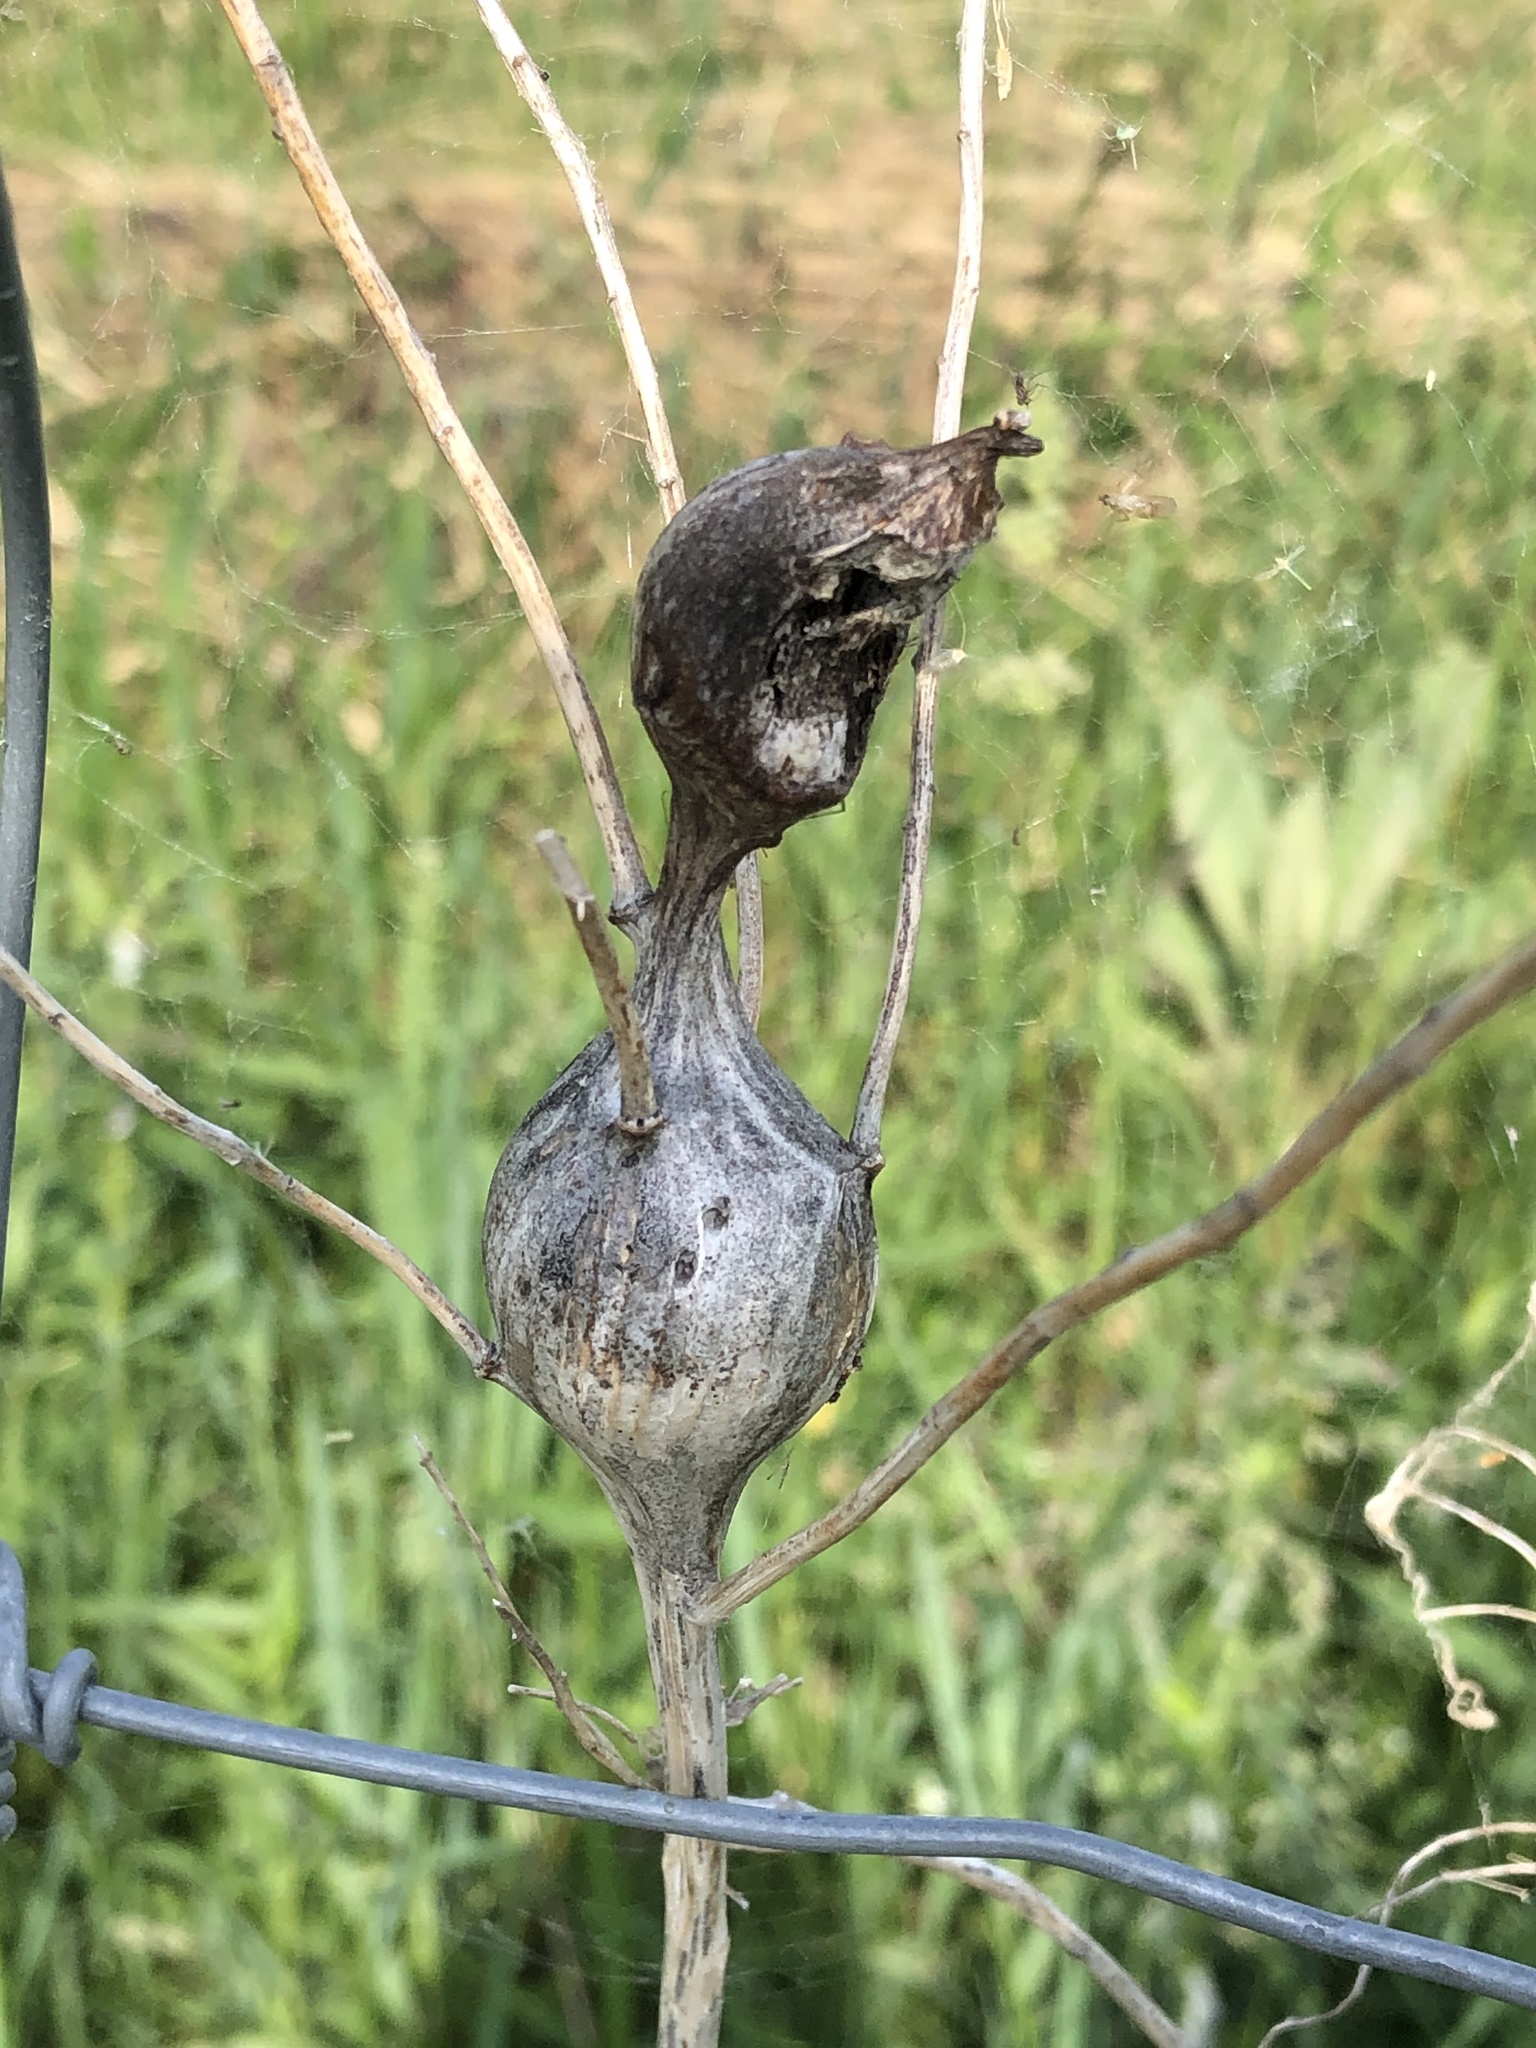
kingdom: Animalia
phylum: Arthropoda
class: Insecta
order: Diptera
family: Tephritidae
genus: Eurosta
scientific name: Eurosta solidaginis
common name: Goldenrod gall fly
